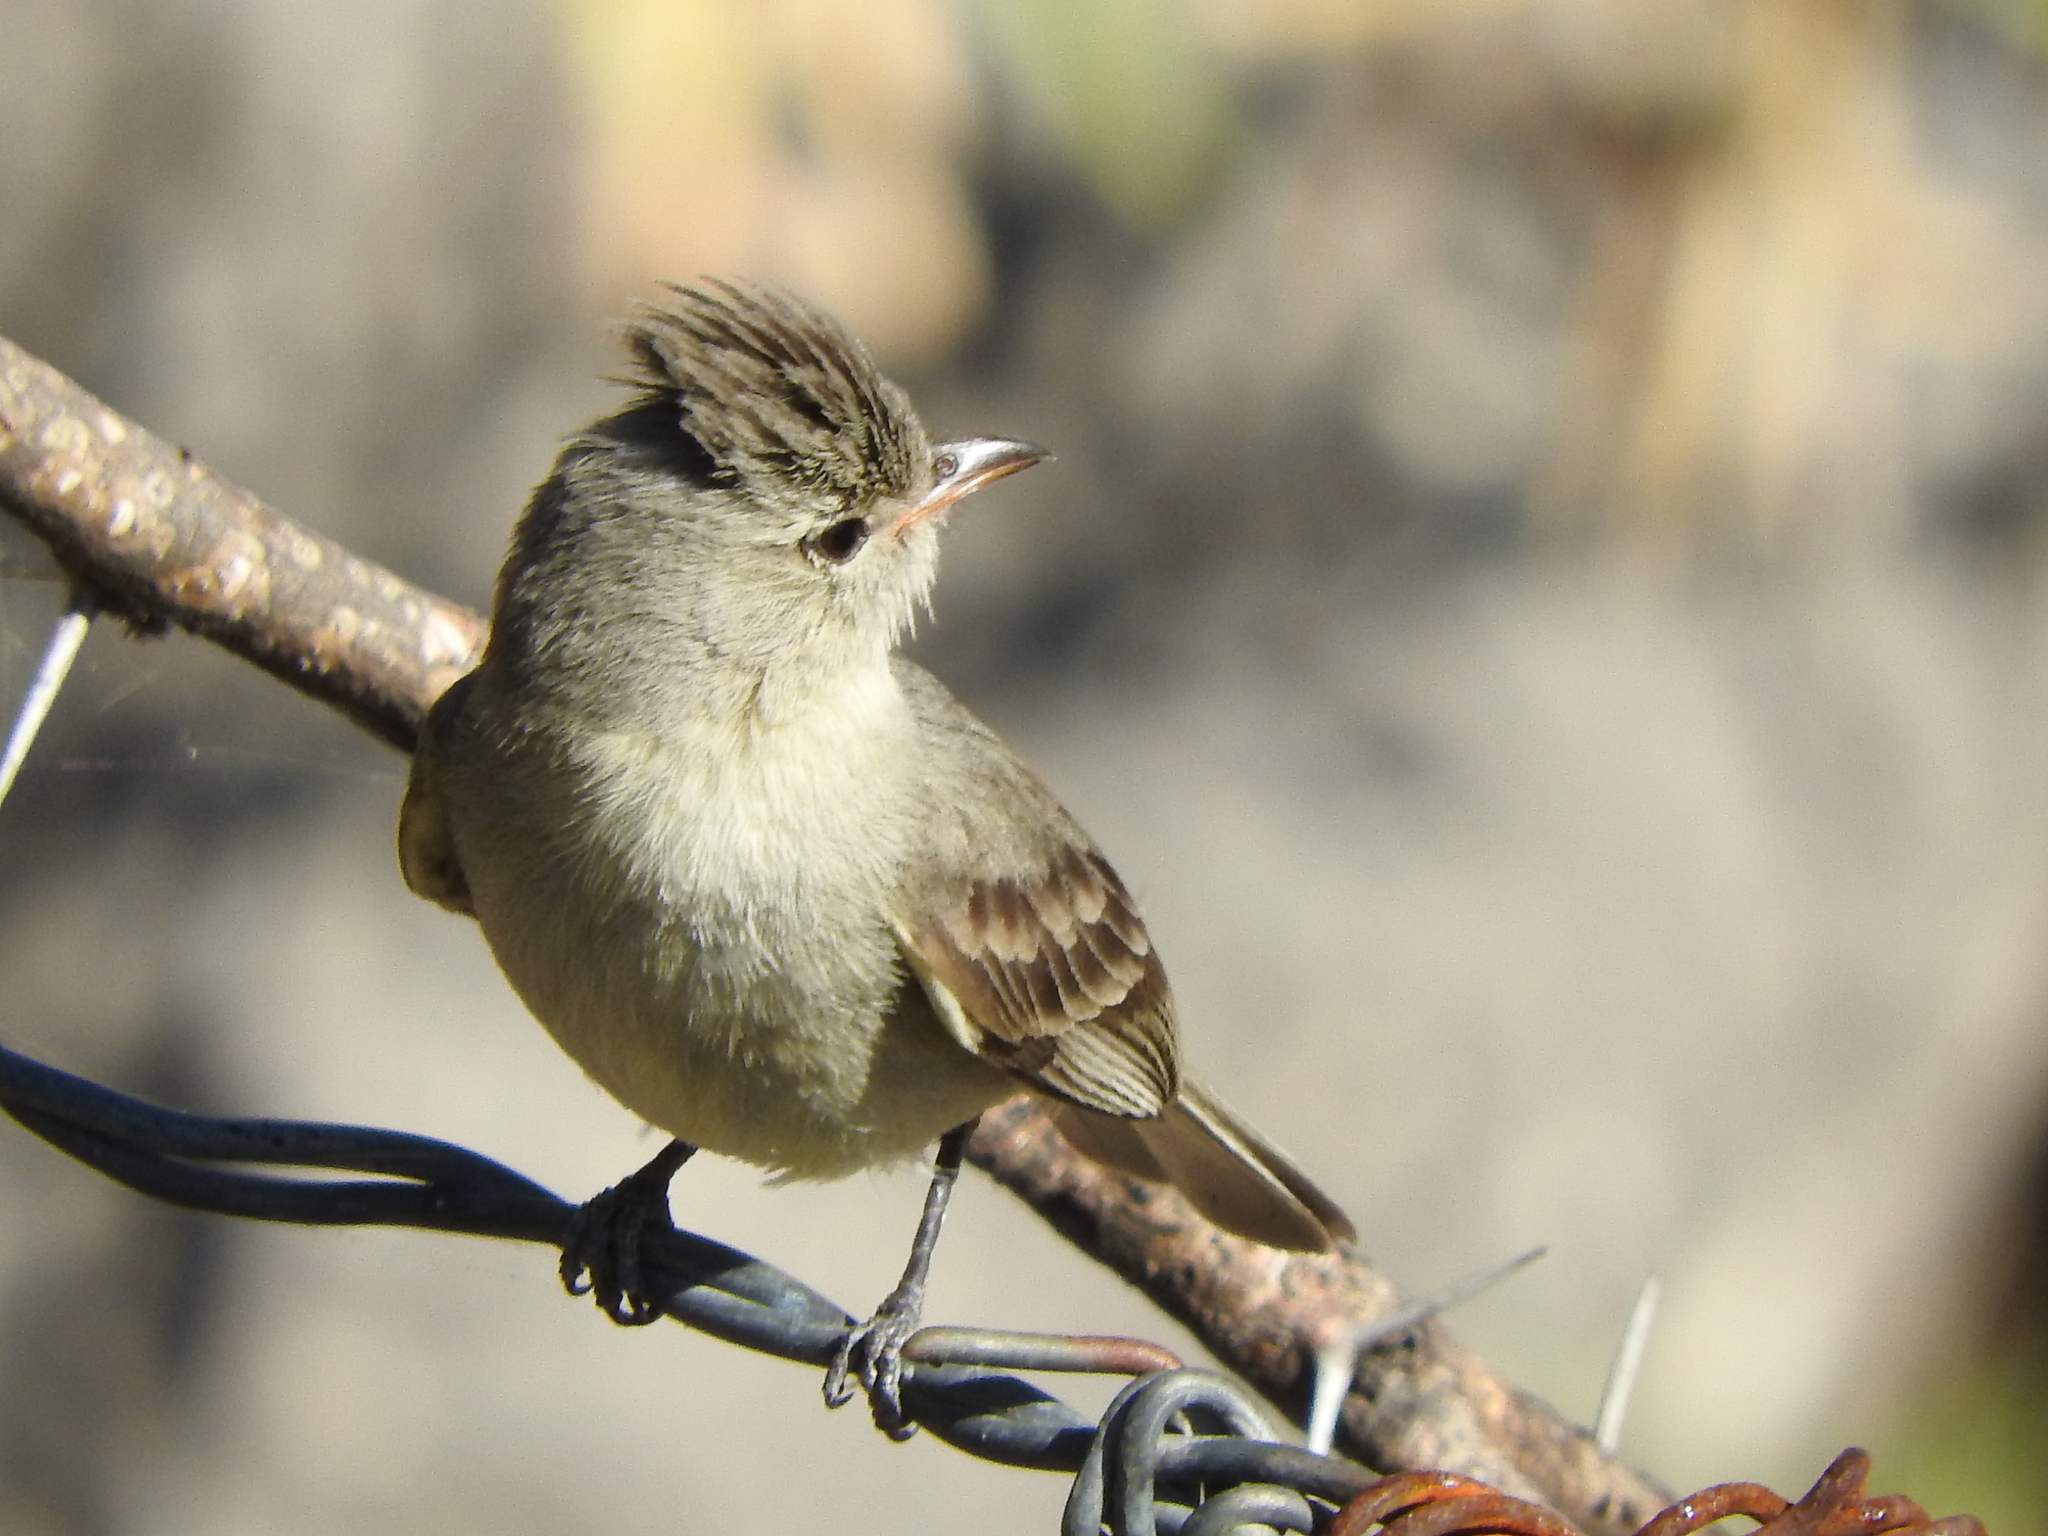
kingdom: Animalia
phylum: Chordata
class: Aves
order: Passeriformes
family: Tyrannidae
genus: Camptostoma
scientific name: Camptostoma imberbe
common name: Northern beardless-tyrannulet
